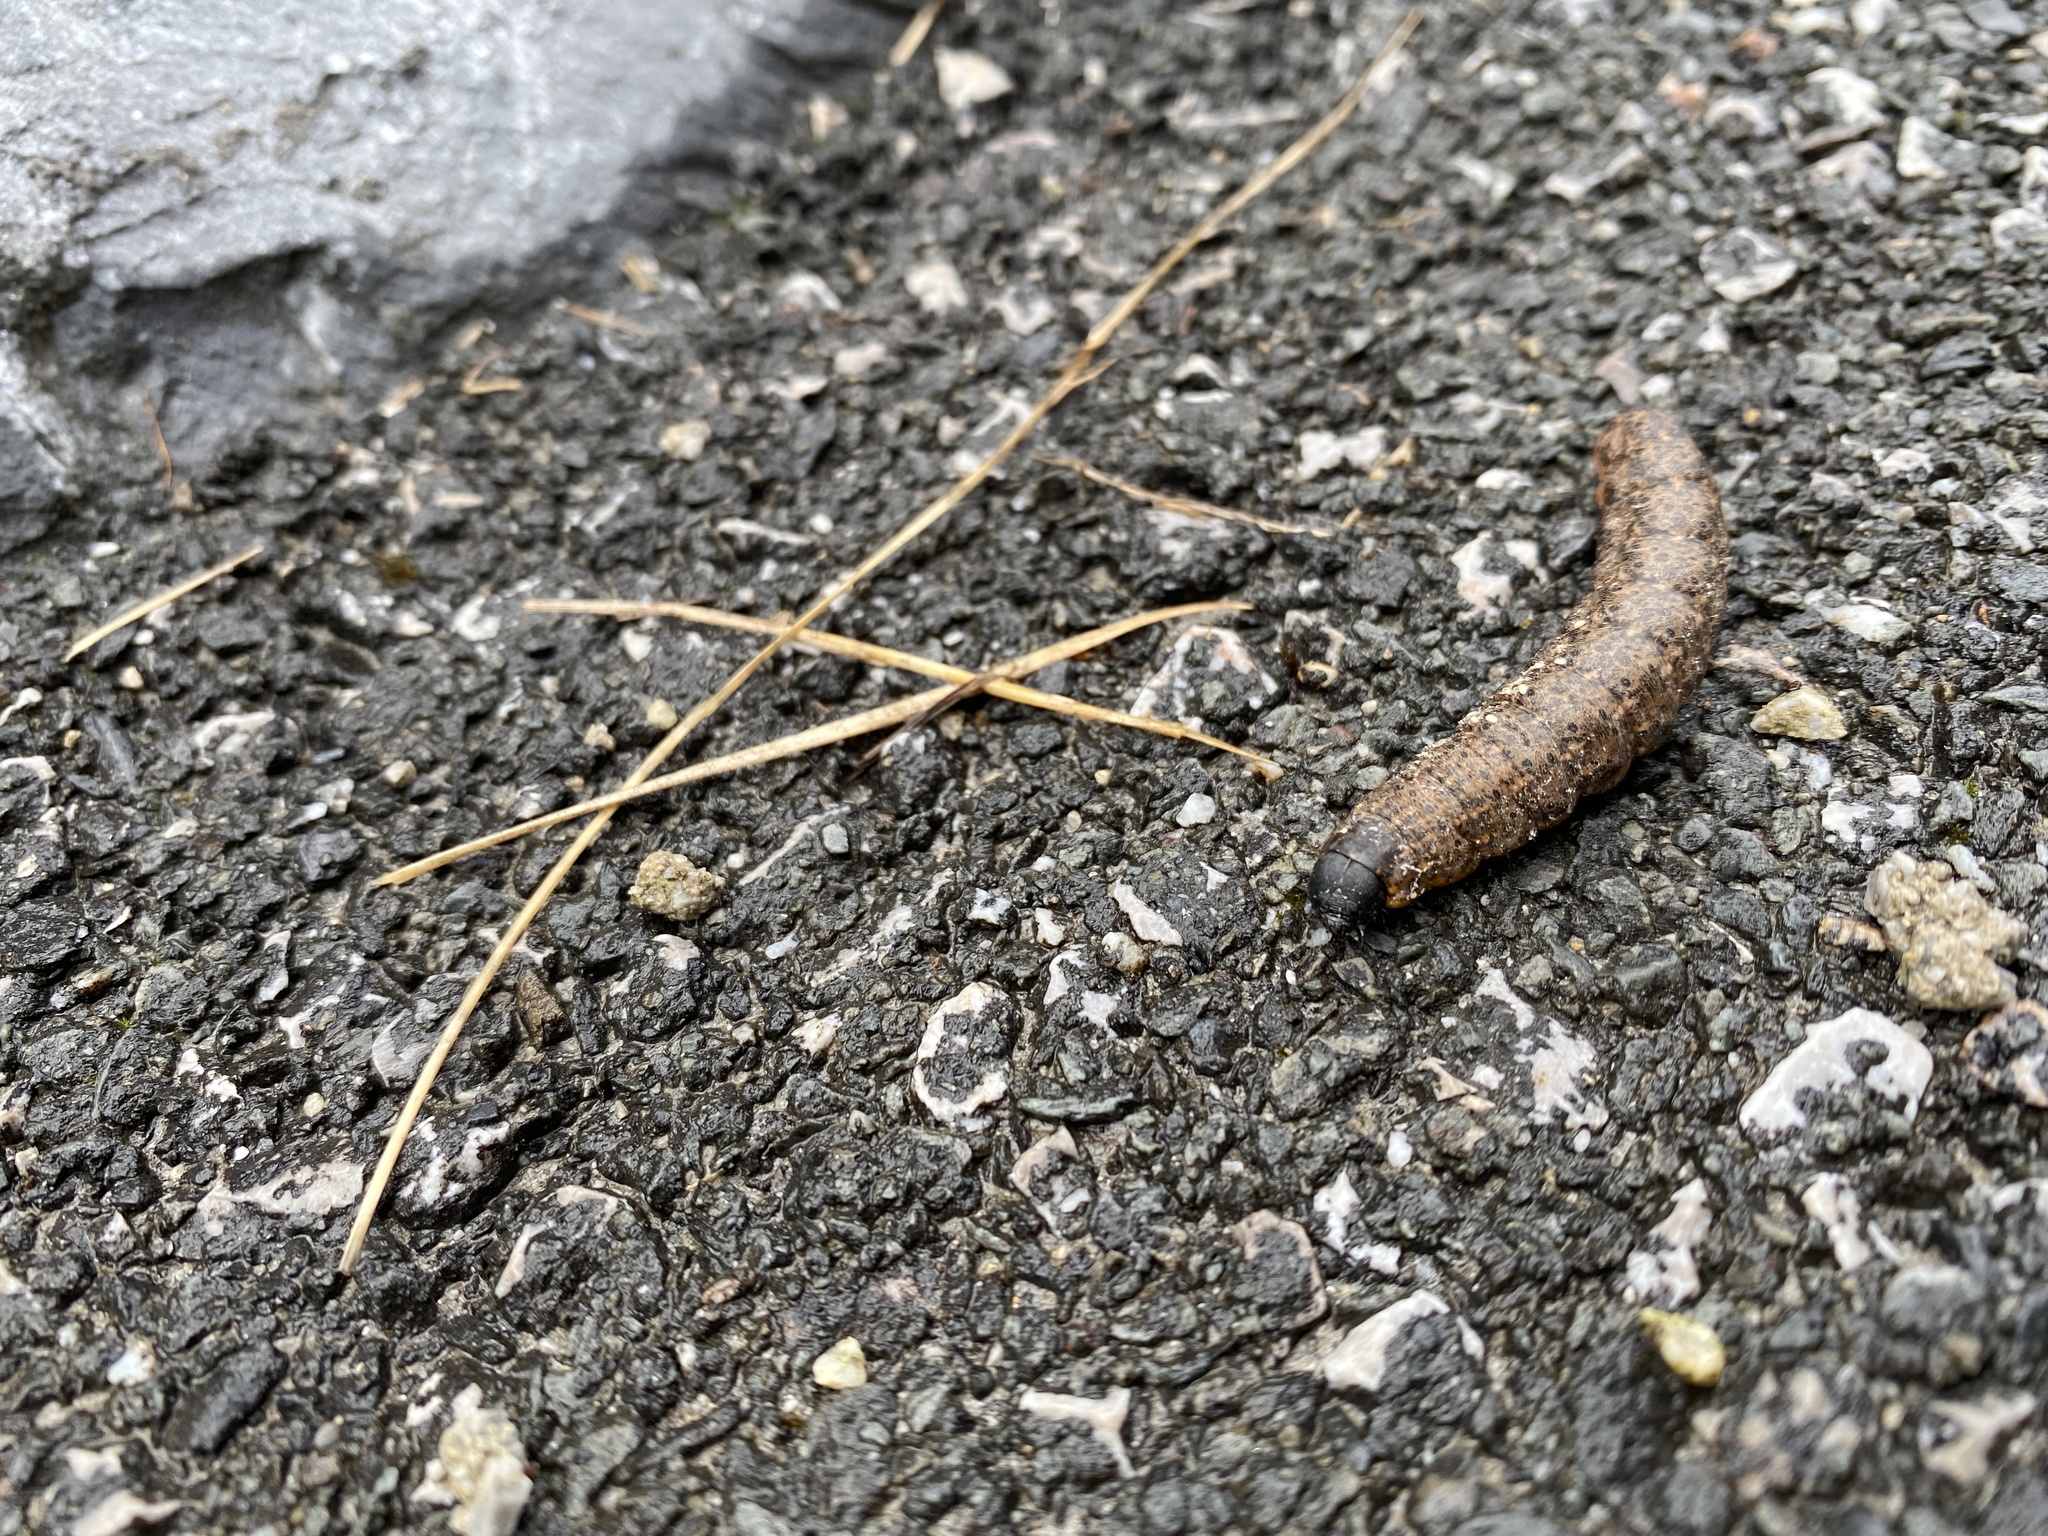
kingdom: Animalia
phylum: Arthropoda
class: Insecta
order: Lepidoptera
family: Noctuidae
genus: Cucullia
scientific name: Cucullia umbratica
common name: Shark
